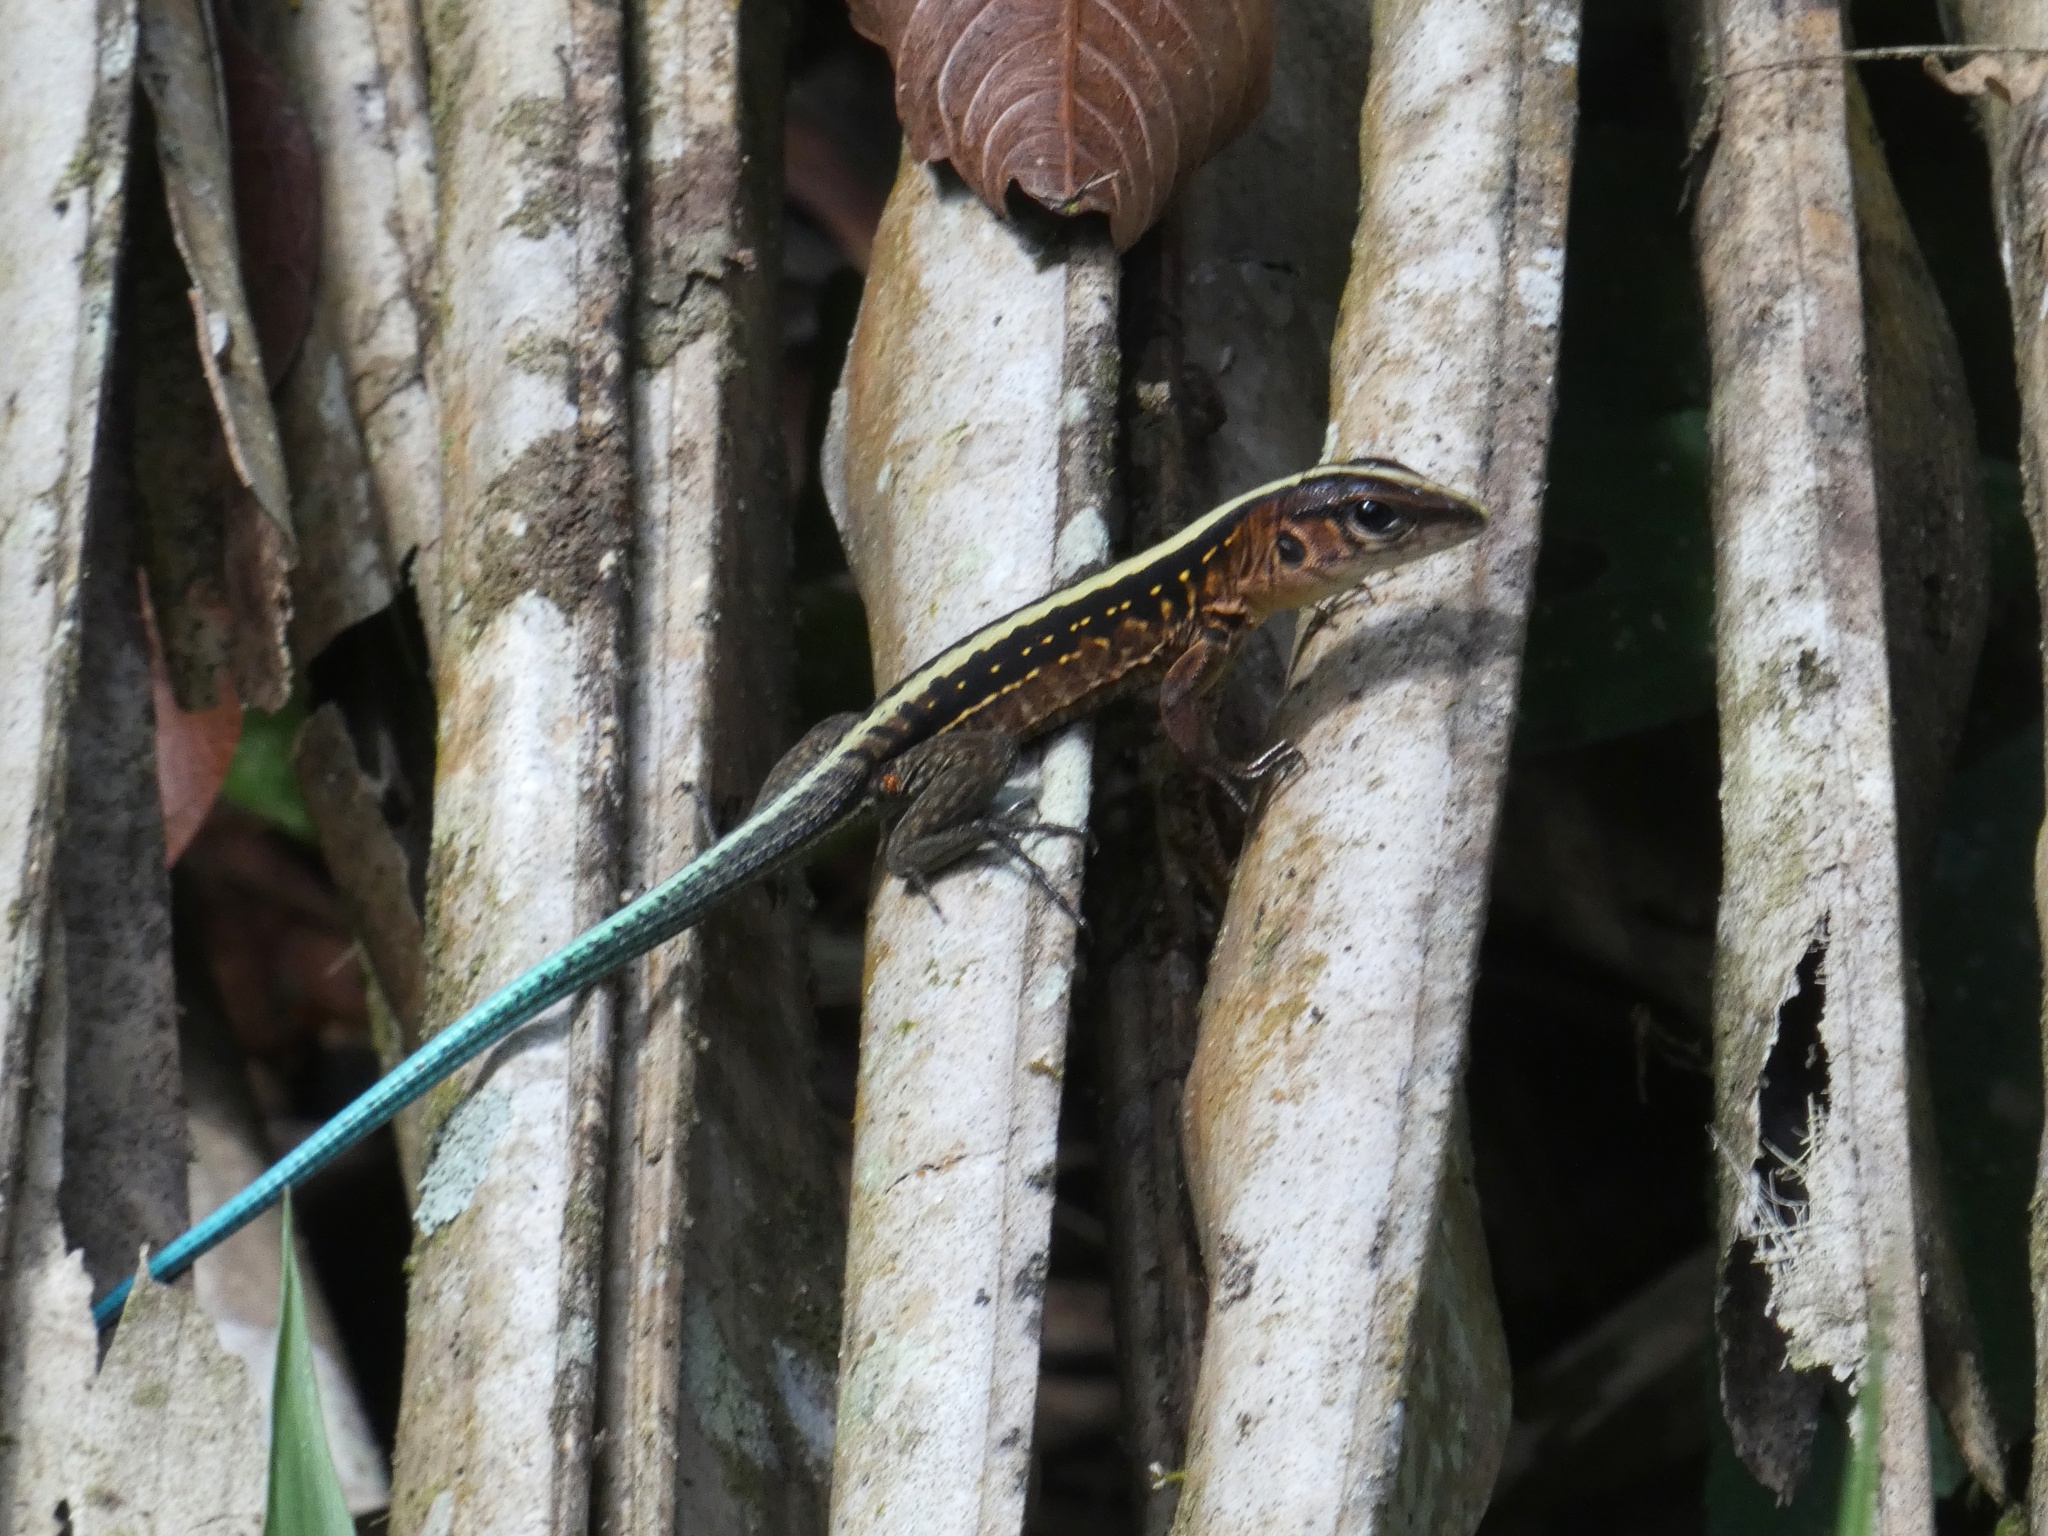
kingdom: Animalia
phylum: Chordata
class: Squamata
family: Teiidae
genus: Holcosus
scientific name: Holcosus festivus
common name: Middle american ameiva
